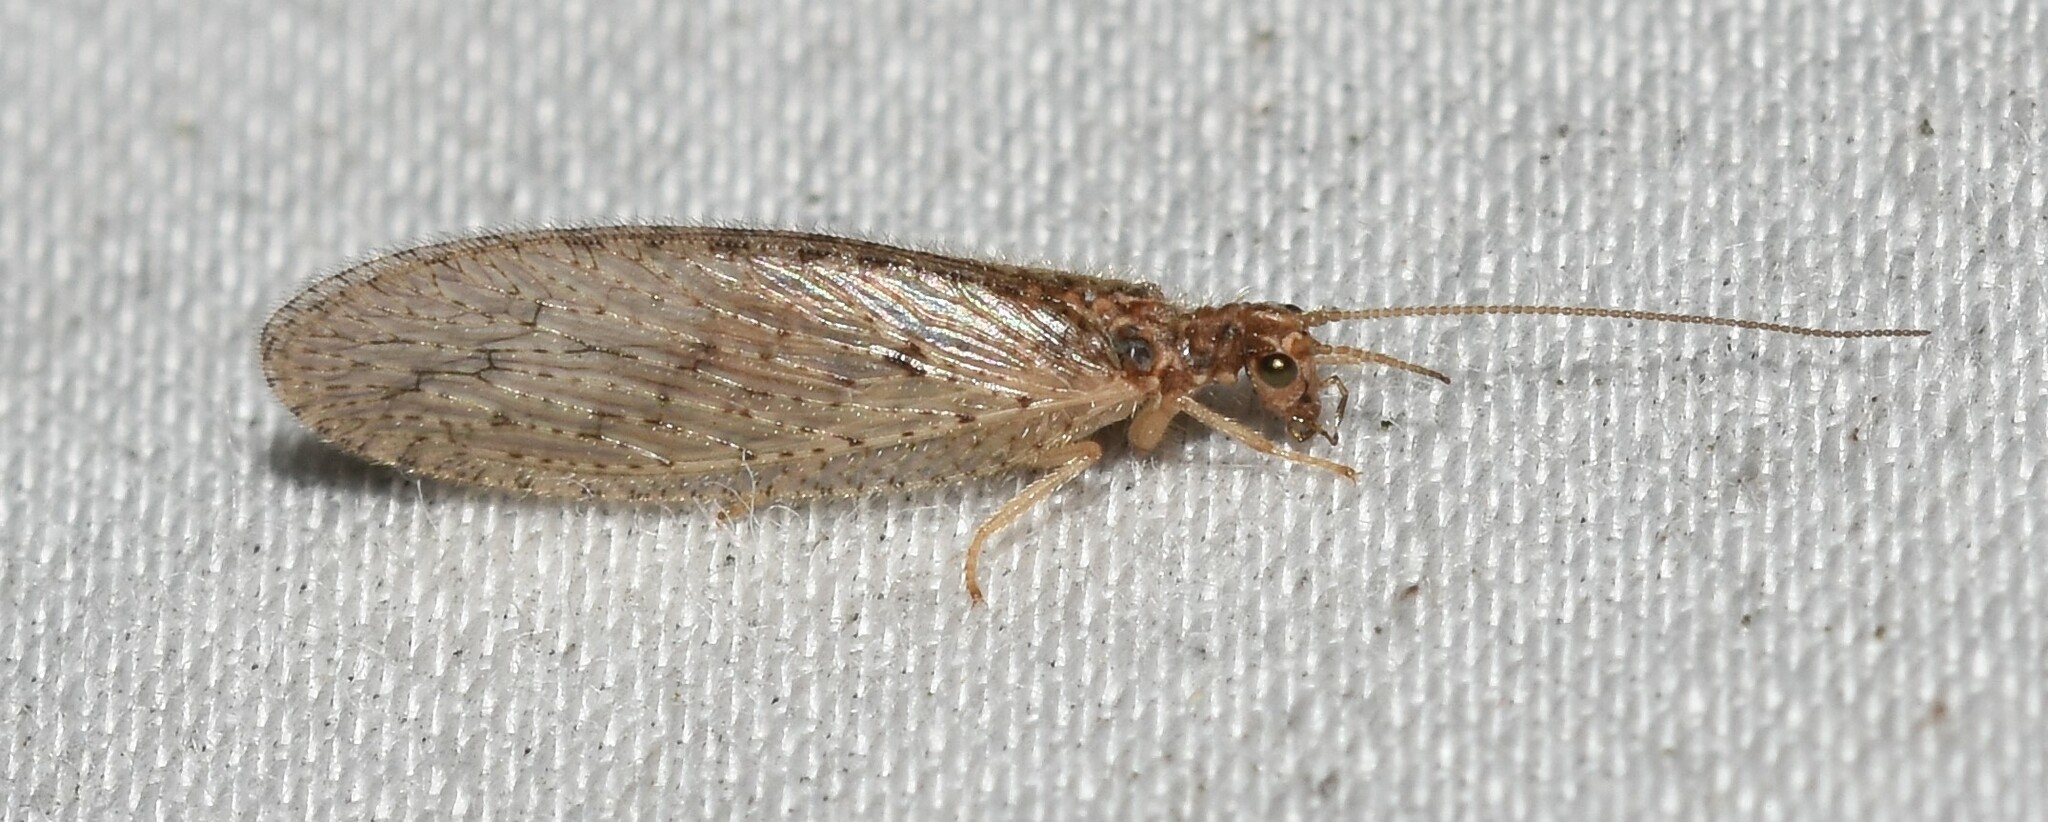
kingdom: Animalia
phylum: Arthropoda
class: Insecta
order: Neuroptera
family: Hemerobiidae
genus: Micromus
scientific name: Micromus subanticus
